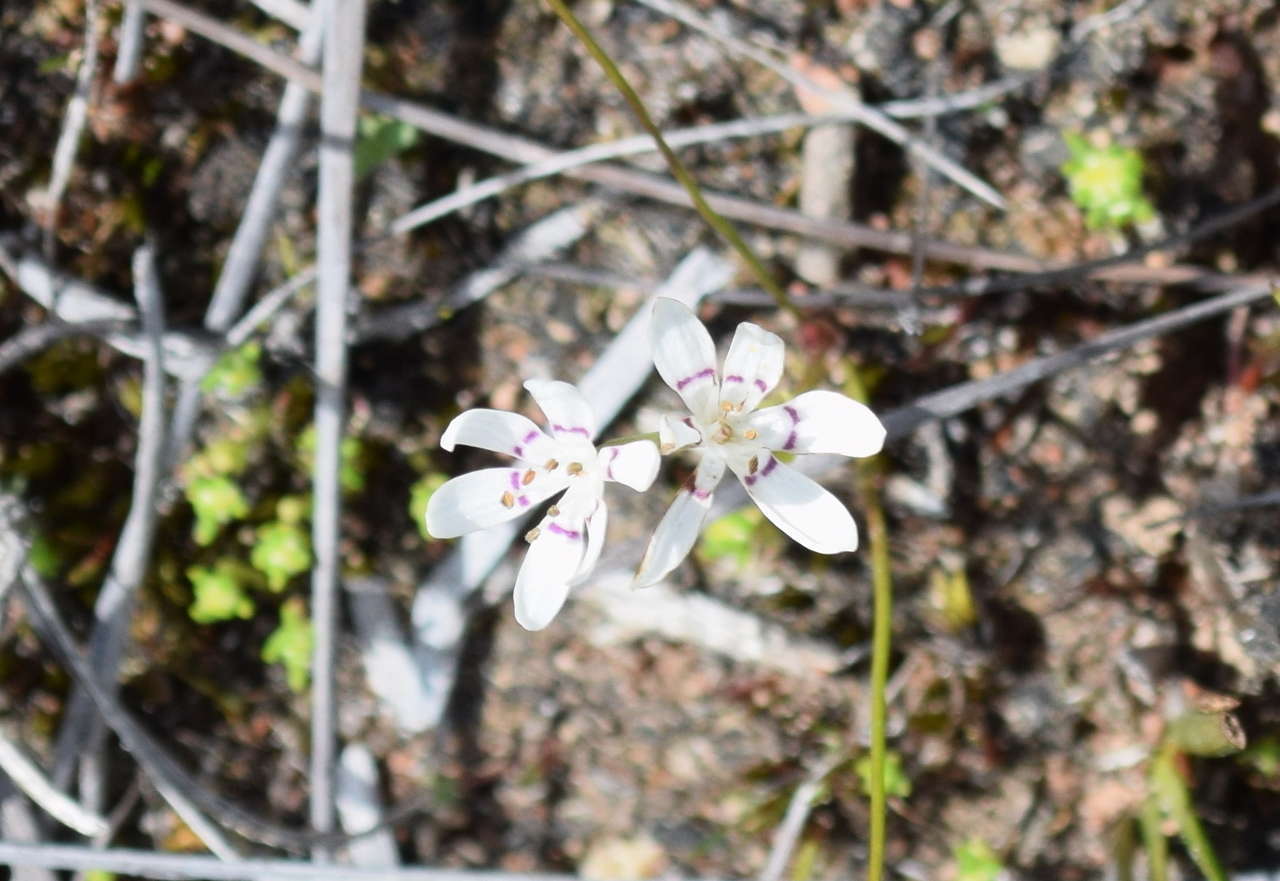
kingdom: Plantae
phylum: Tracheophyta
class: Liliopsida
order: Liliales
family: Colchicaceae
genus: Wurmbea
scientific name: Wurmbea dioica
